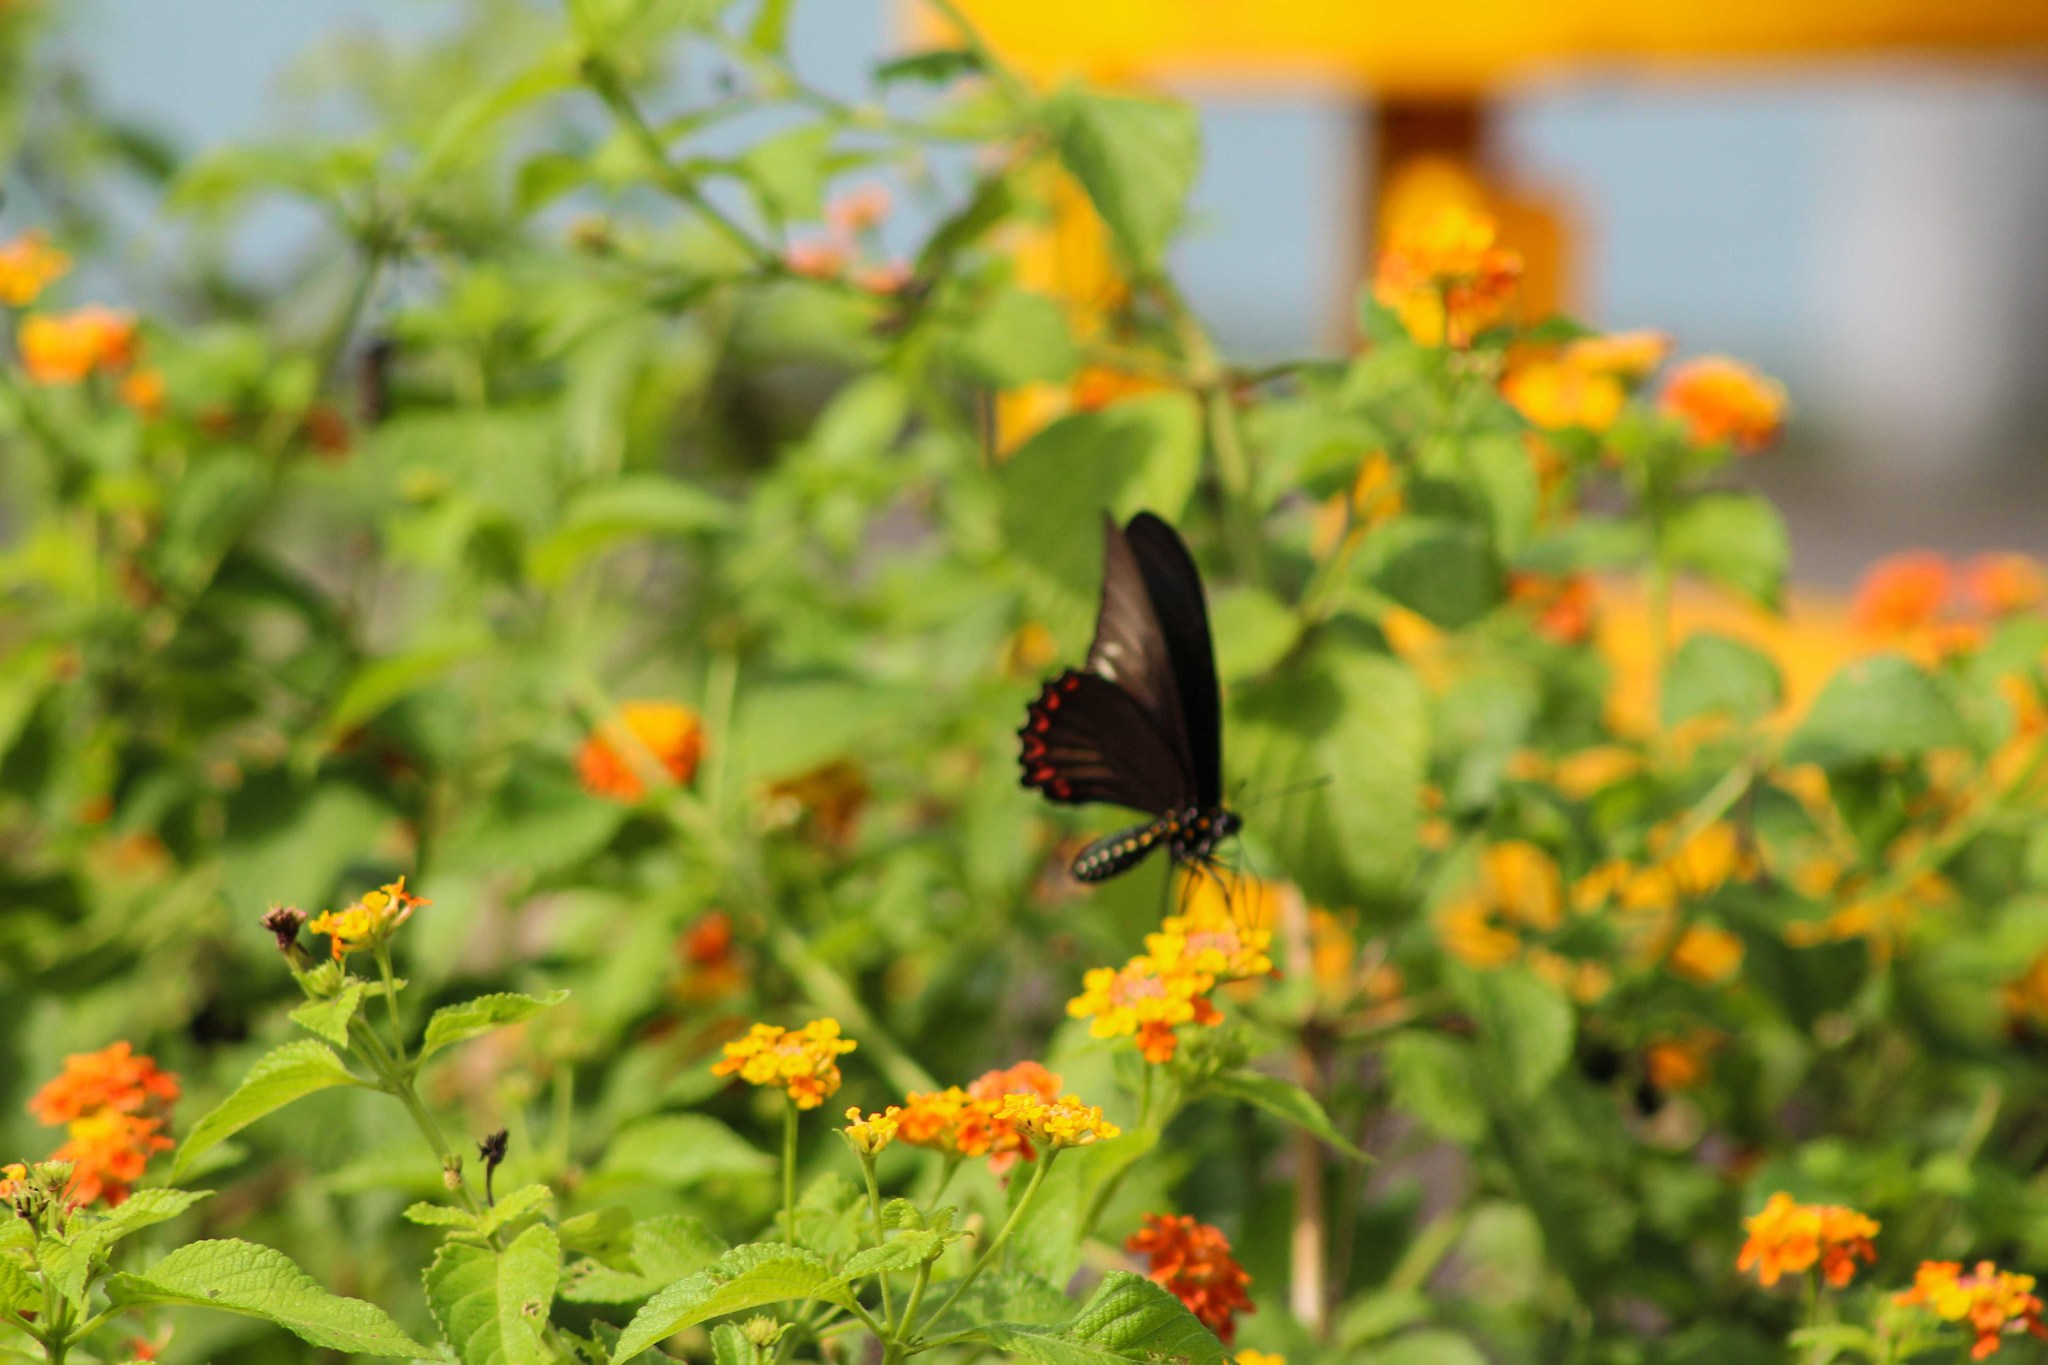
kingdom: Animalia
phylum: Arthropoda
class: Insecta
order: Lepidoptera
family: Papilionidae
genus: Battus
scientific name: Battus polydamas
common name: Polydamas swallowtail
